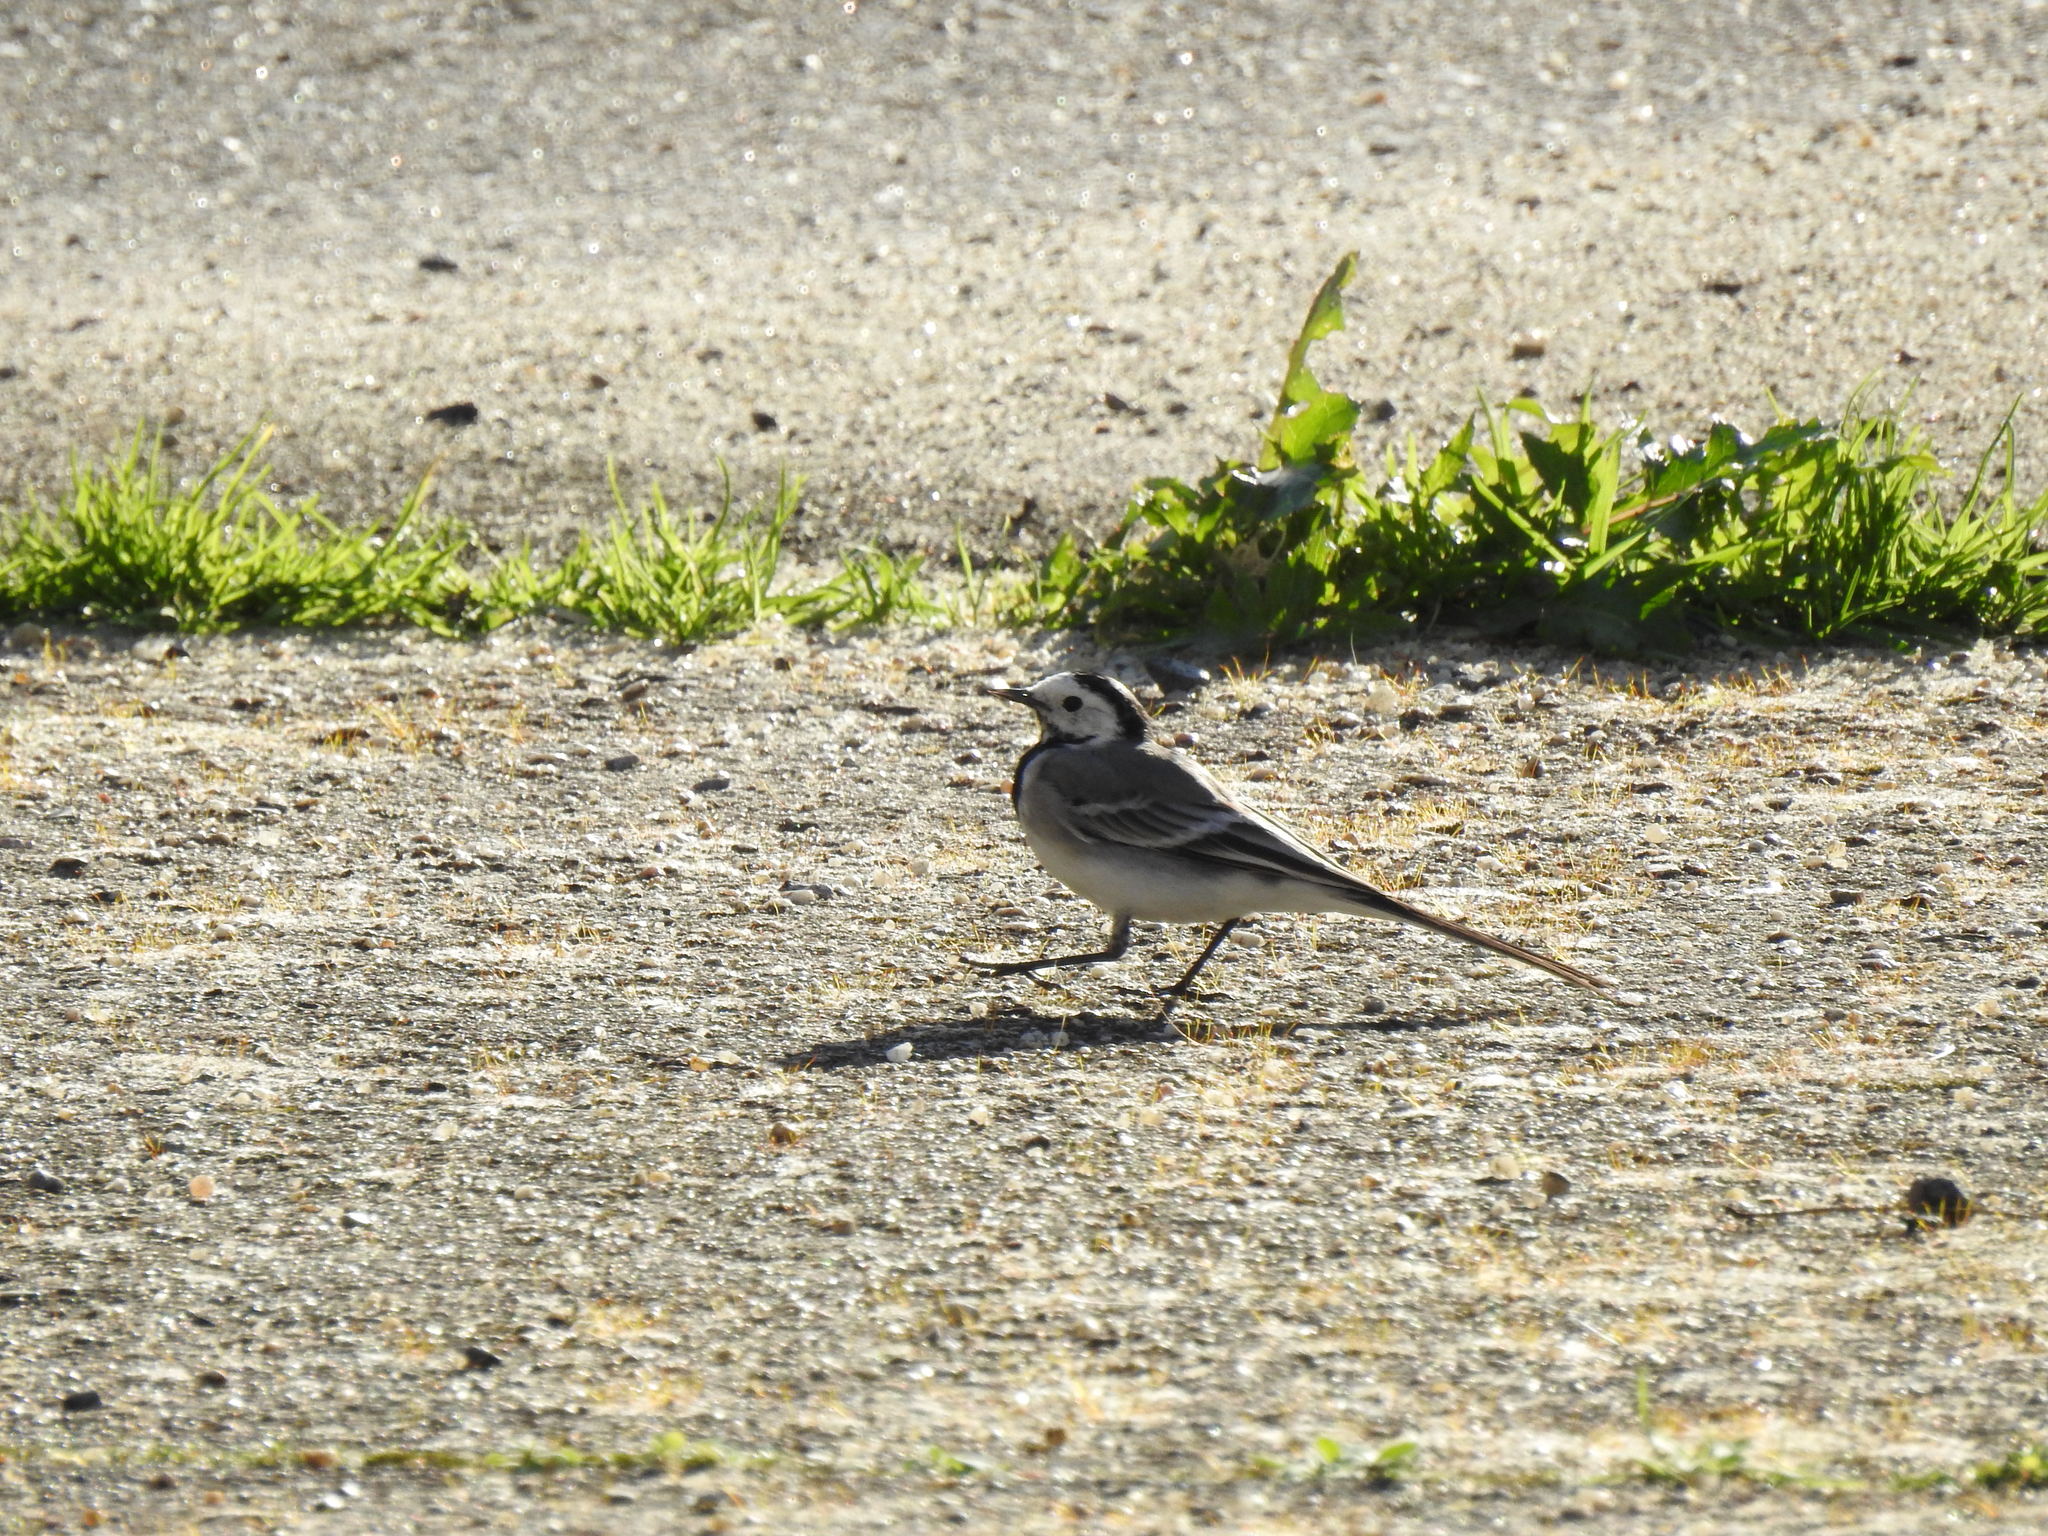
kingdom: Animalia
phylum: Chordata
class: Aves
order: Passeriformes
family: Motacillidae
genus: Motacilla
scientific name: Motacilla alba
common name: White wagtail
